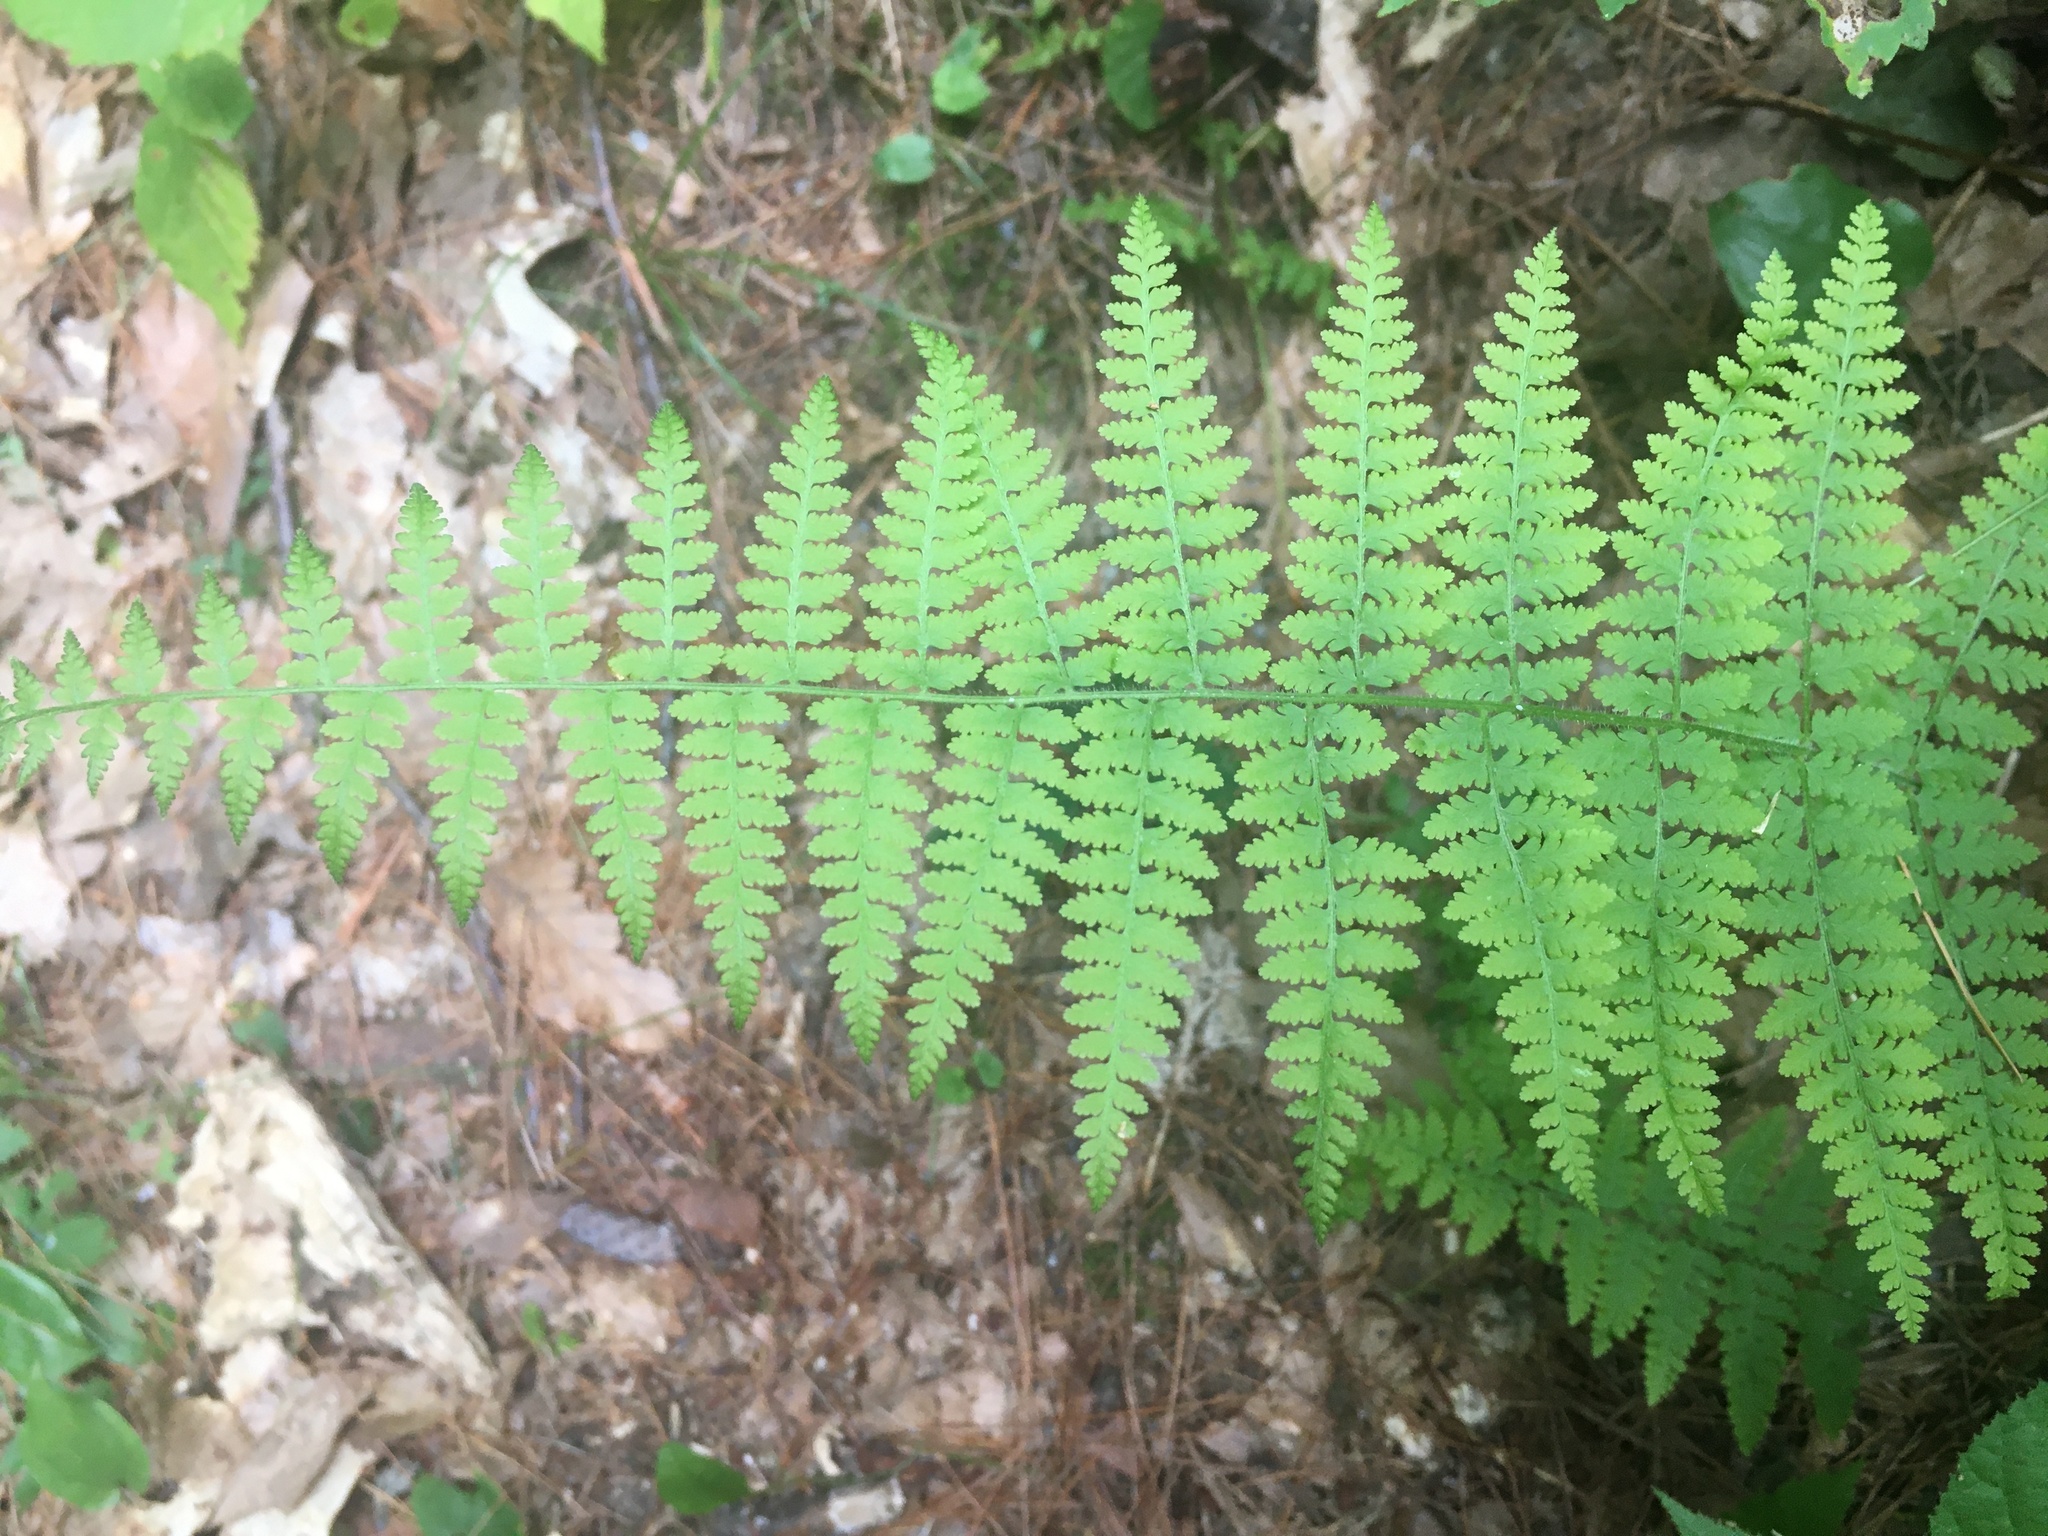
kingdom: Plantae
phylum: Tracheophyta
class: Polypodiopsida
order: Polypodiales
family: Dennstaedtiaceae
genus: Sitobolium
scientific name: Sitobolium punctilobum
